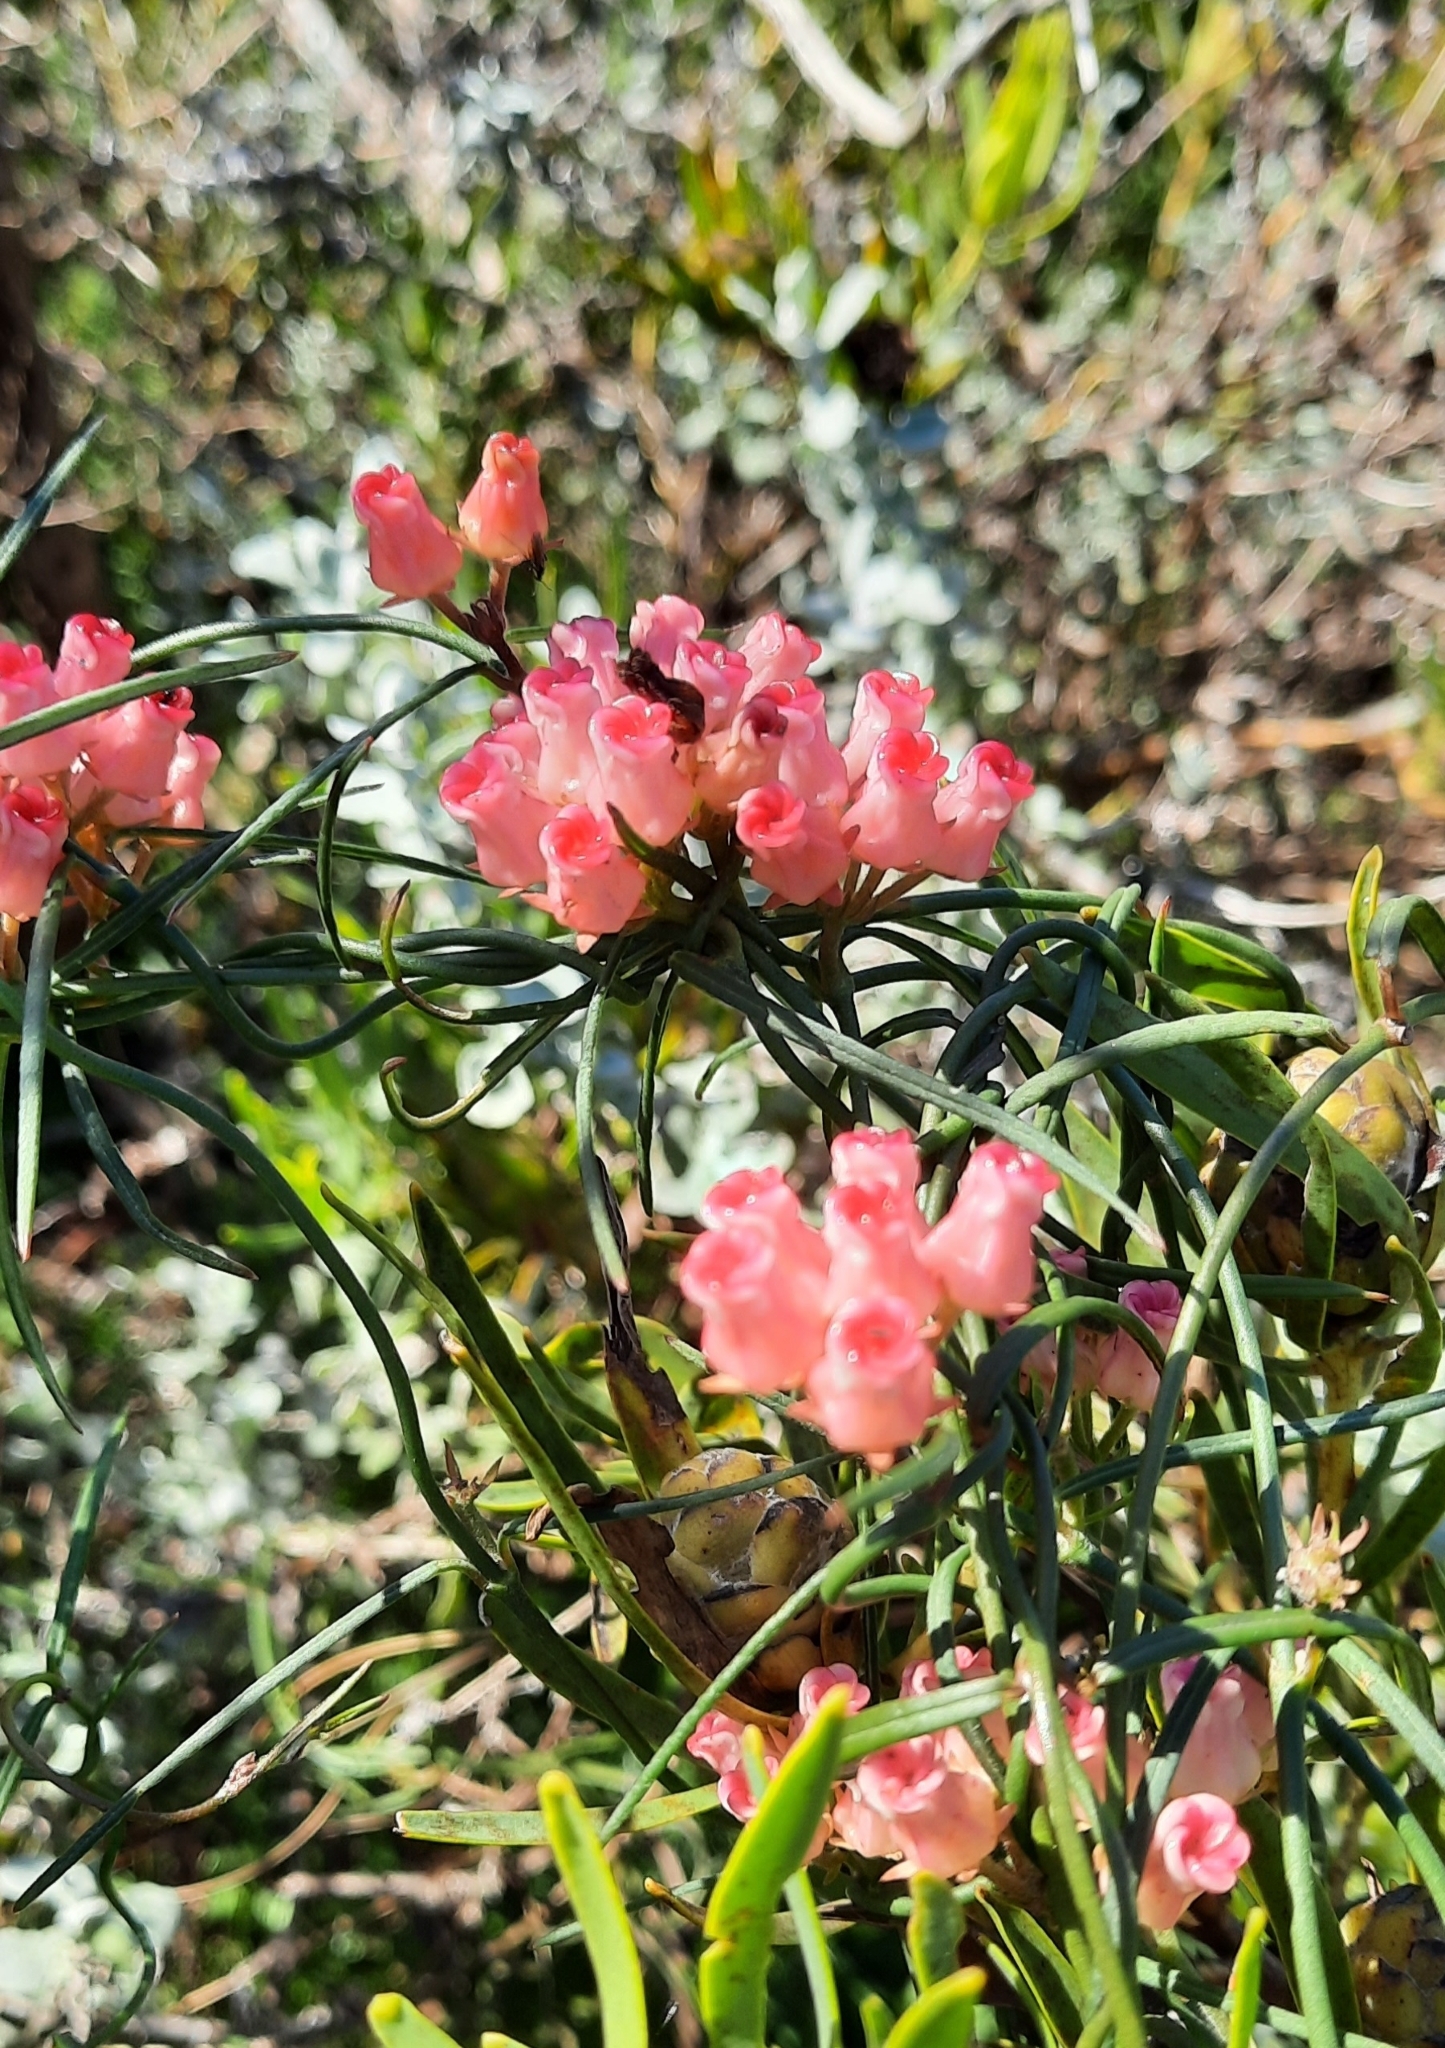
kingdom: Plantae
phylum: Tracheophyta
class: Magnoliopsida
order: Gentianales
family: Apocynaceae
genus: Microloma
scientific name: Microloma tenuifolium
